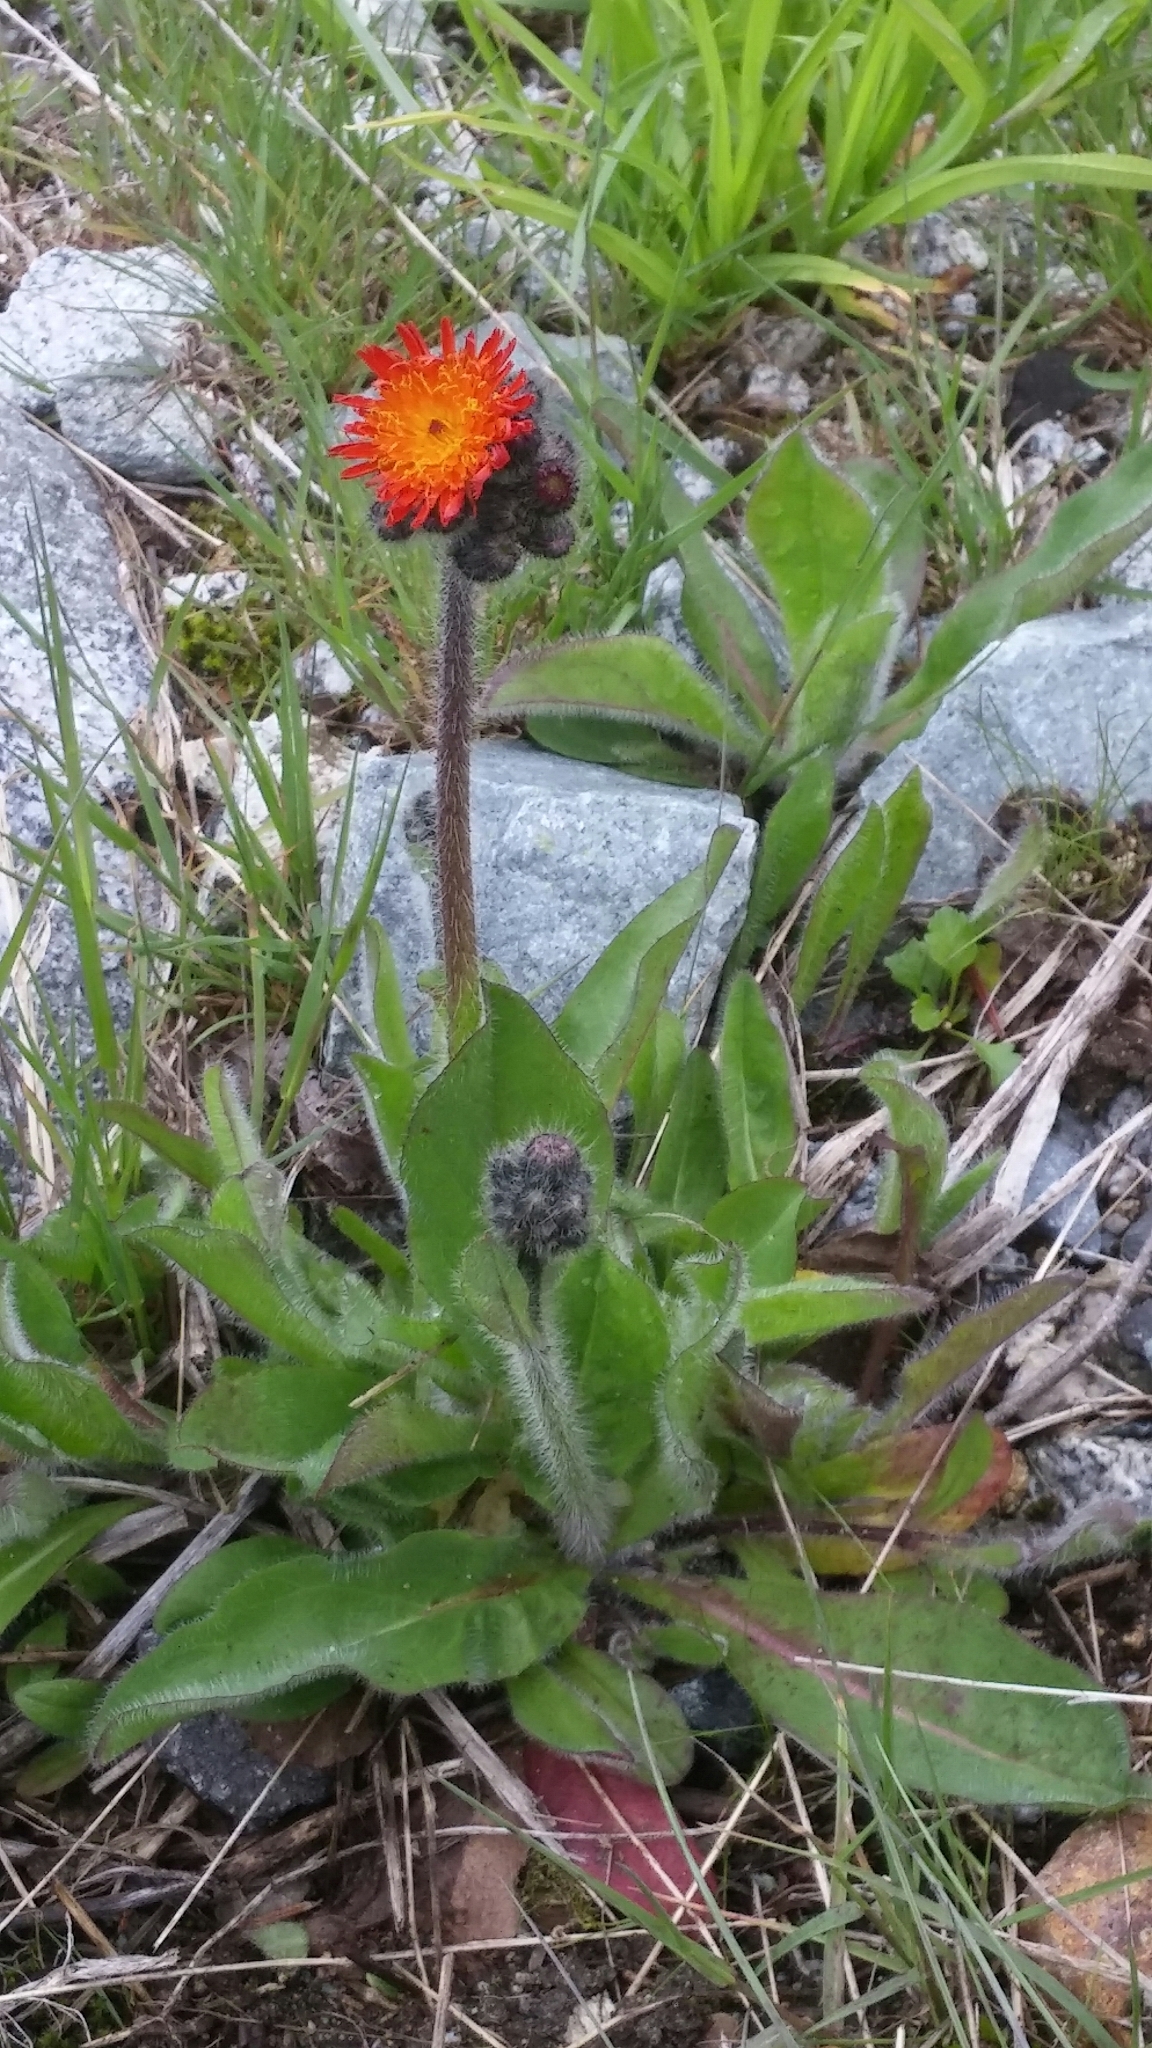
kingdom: Plantae
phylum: Tracheophyta
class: Magnoliopsida
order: Asterales
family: Asteraceae
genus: Pilosella
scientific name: Pilosella aurantiaca
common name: Fox-and-cubs
